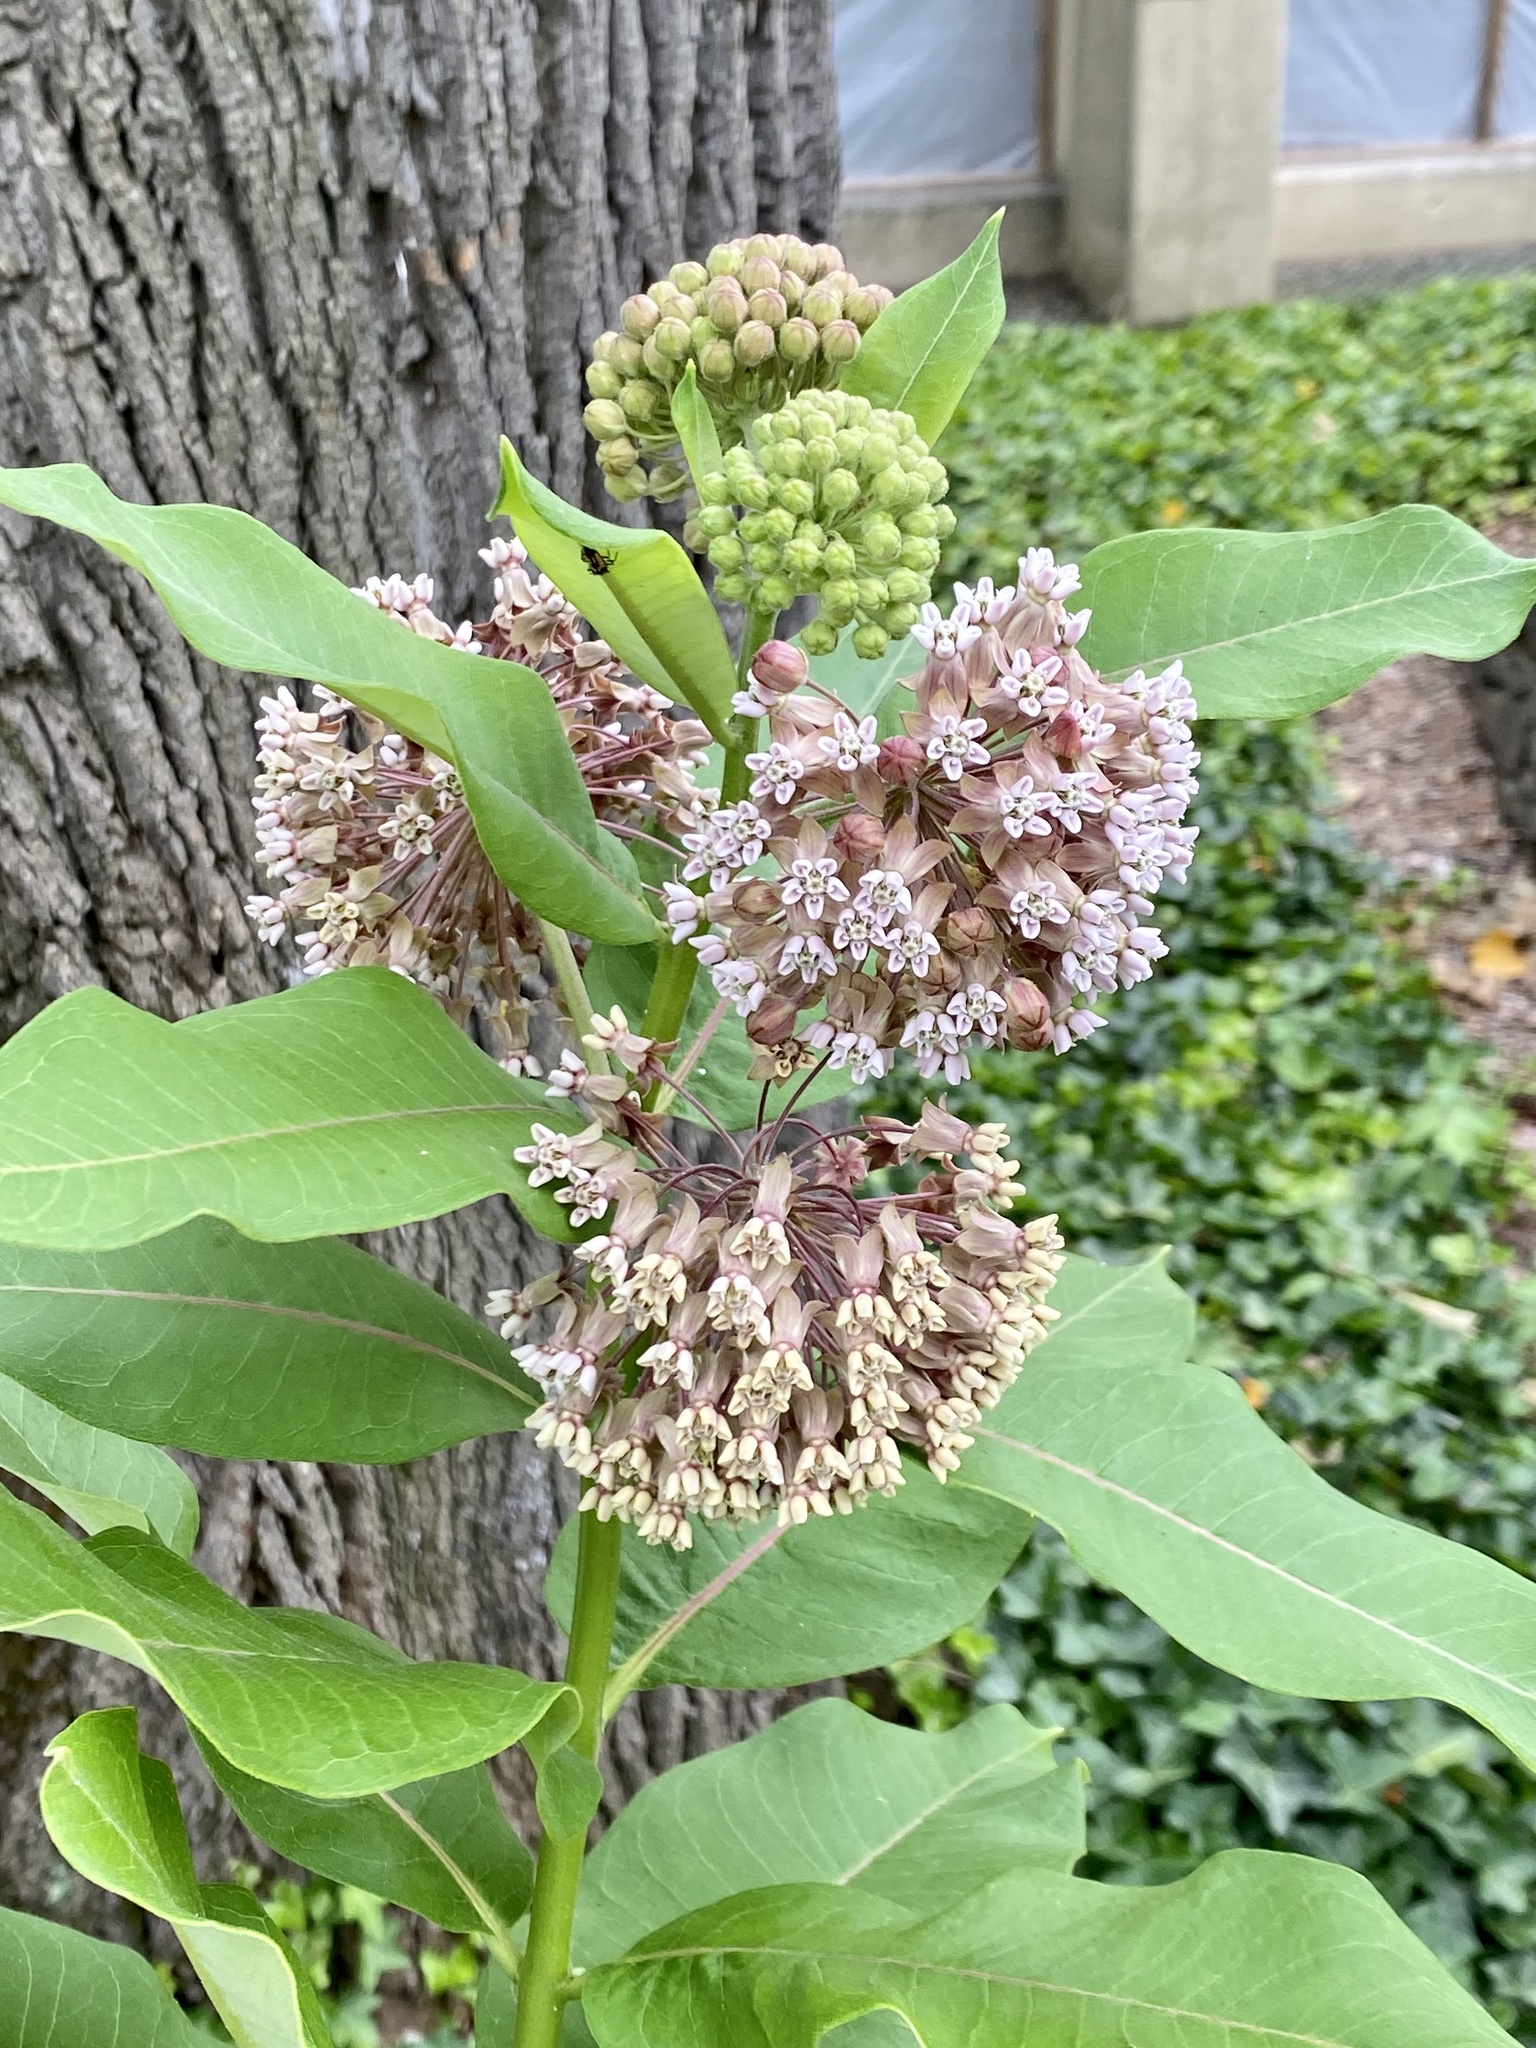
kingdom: Plantae
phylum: Tracheophyta
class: Magnoliopsida
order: Gentianales
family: Apocynaceae
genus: Asclepias
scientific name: Asclepias syriaca
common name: Common milkweed
